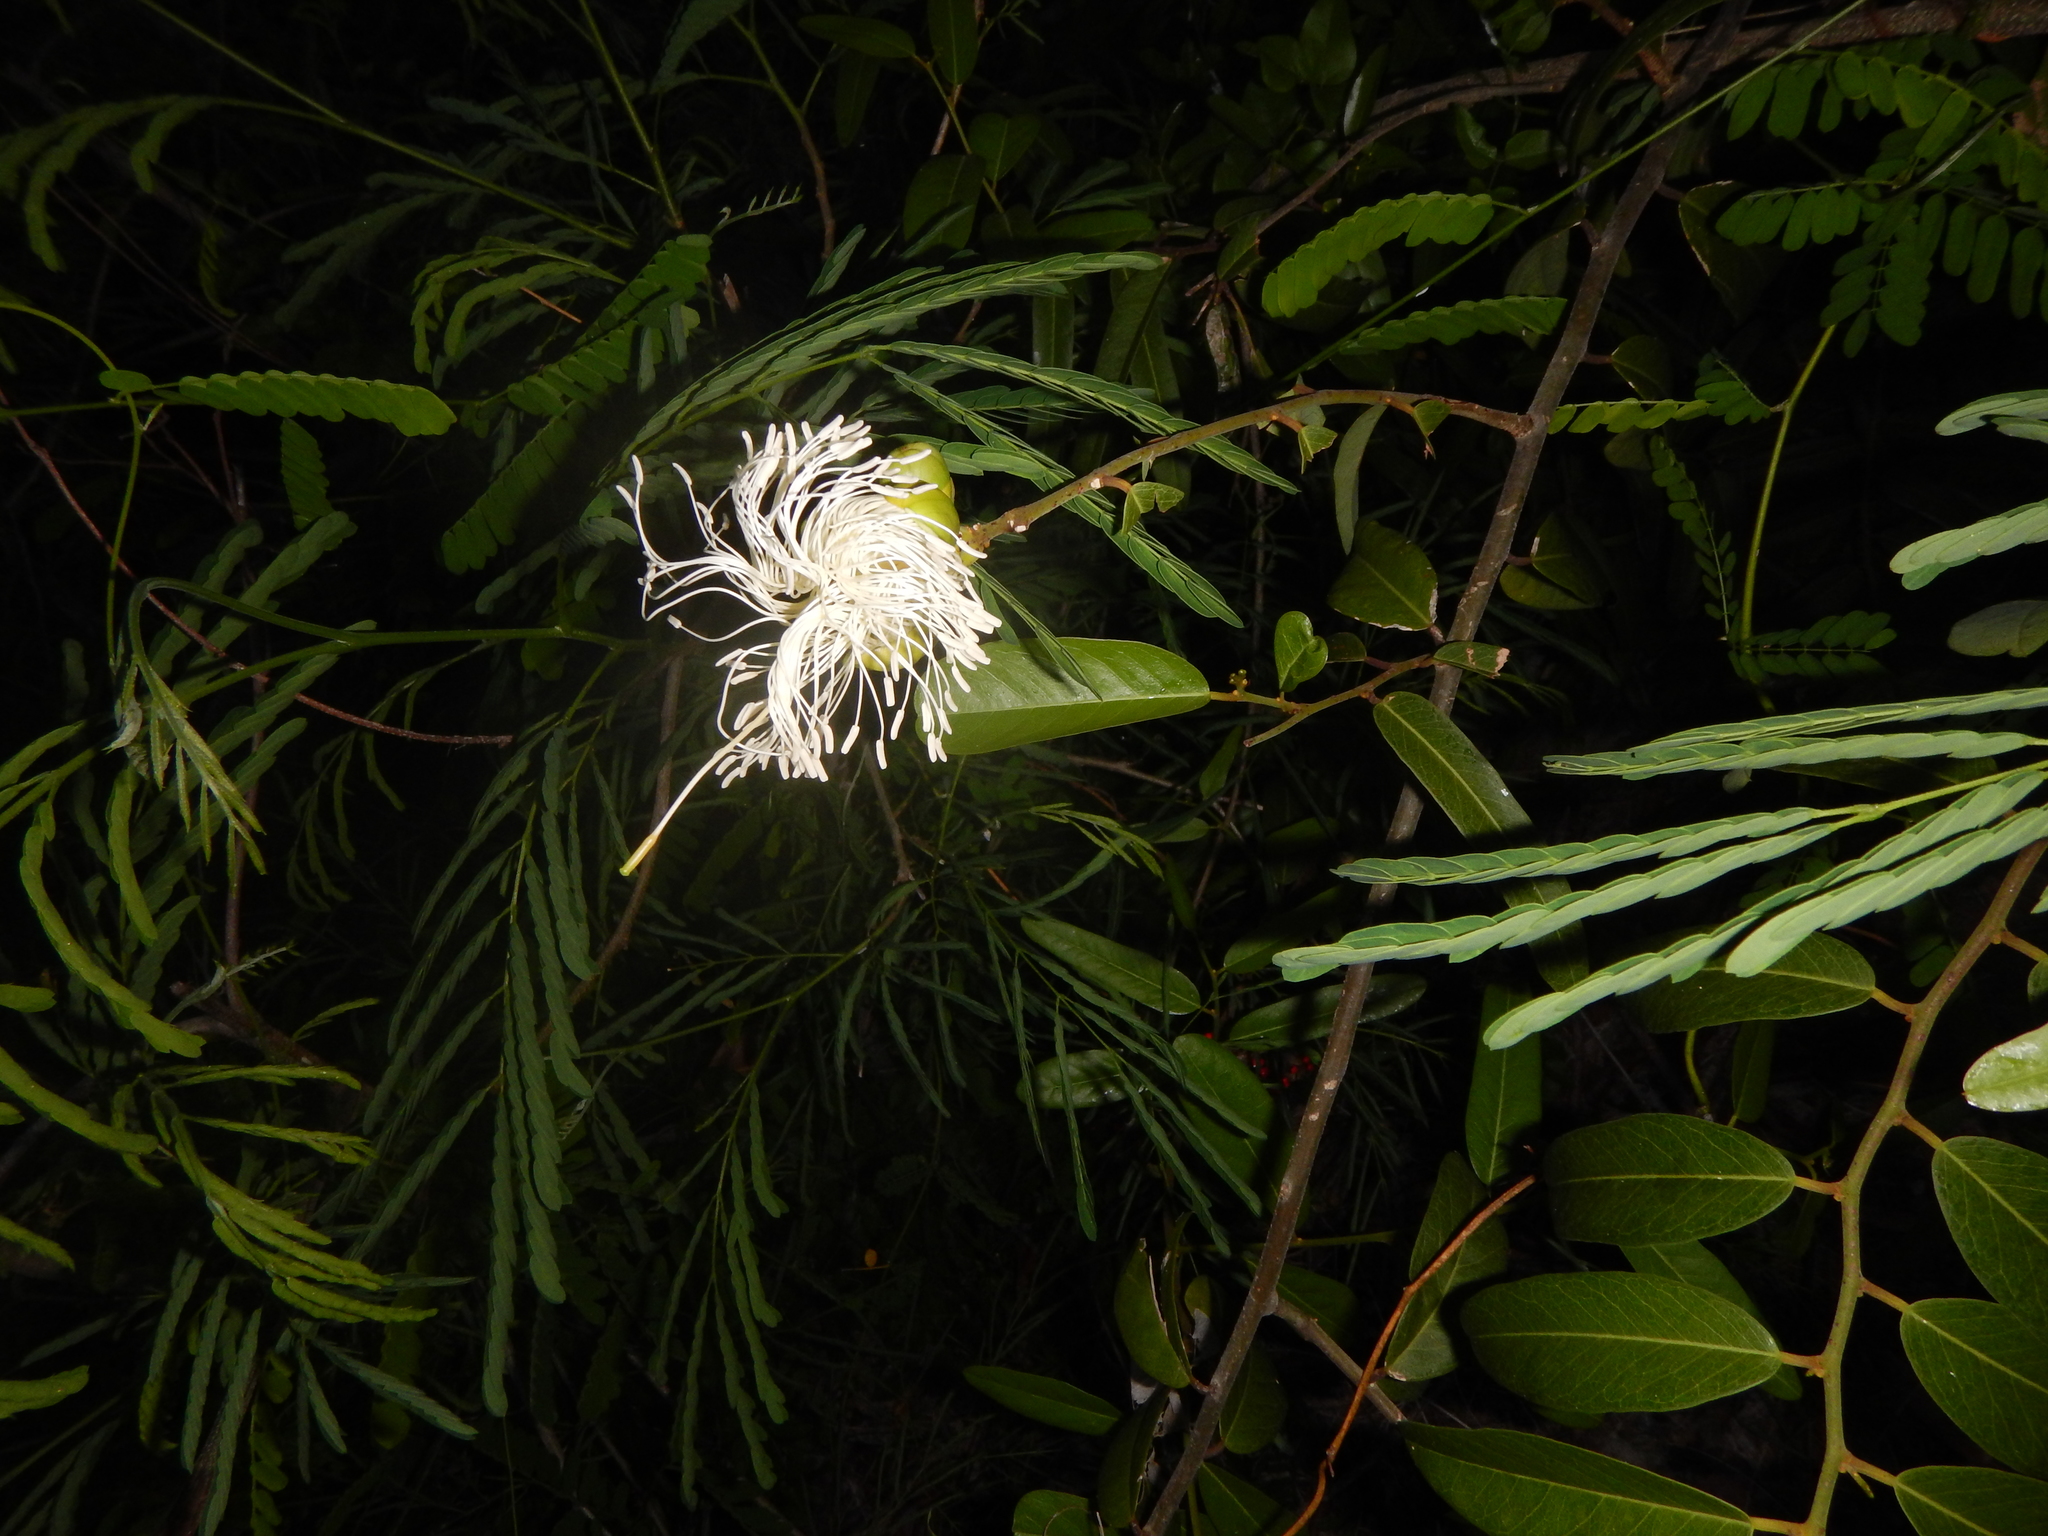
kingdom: Plantae
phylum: Tracheophyta
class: Magnoliopsida
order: Brassicales
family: Capparaceae
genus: Cynophalla
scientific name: Cynophalla flexuosa
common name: Capertree
